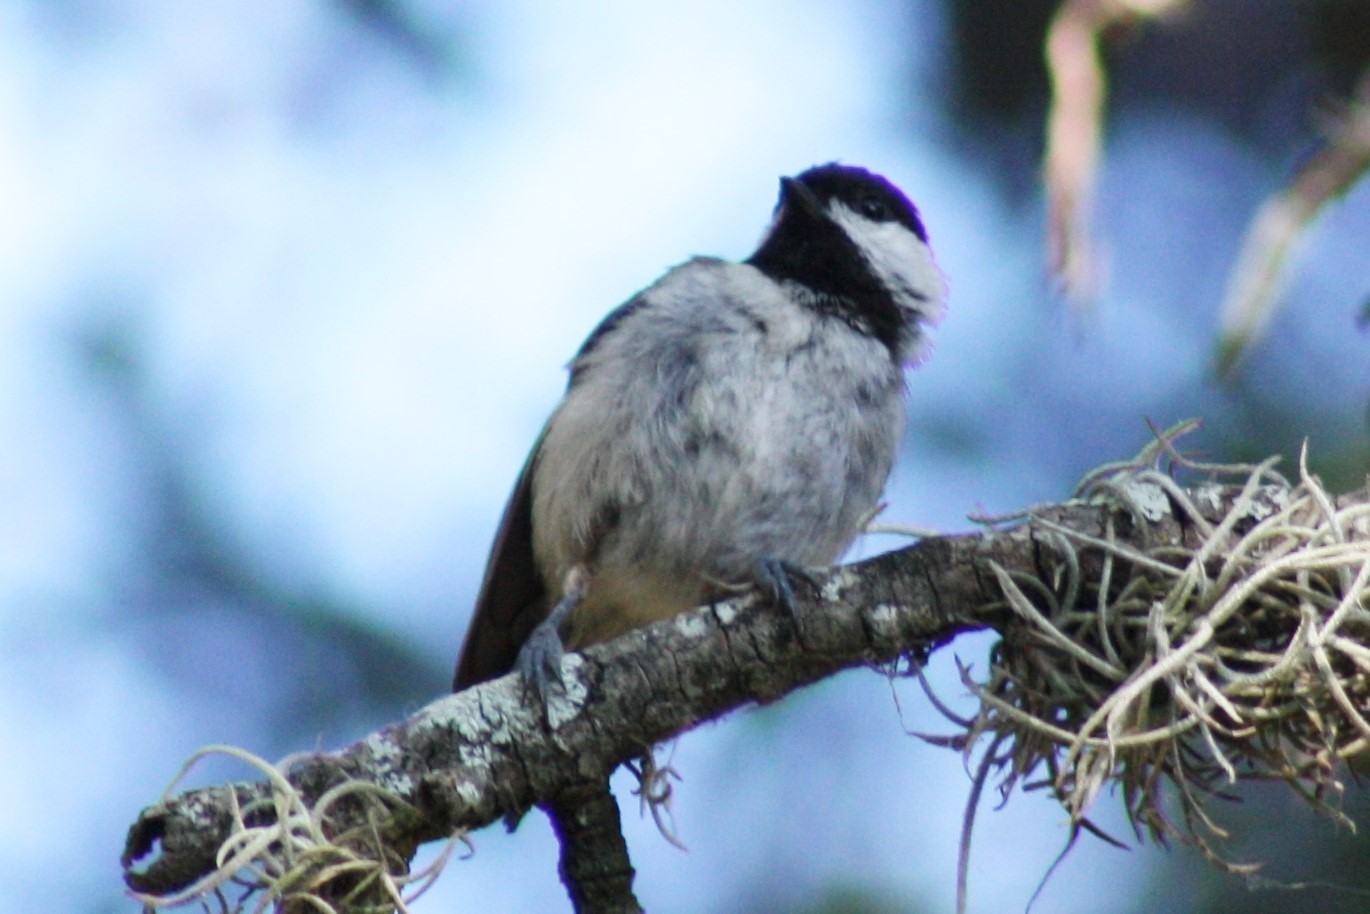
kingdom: Animalia
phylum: Chordata
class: Aves
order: Passeriformes
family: Paridae
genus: Poecile
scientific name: Poecile carolinensis
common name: Carolina chickadee
